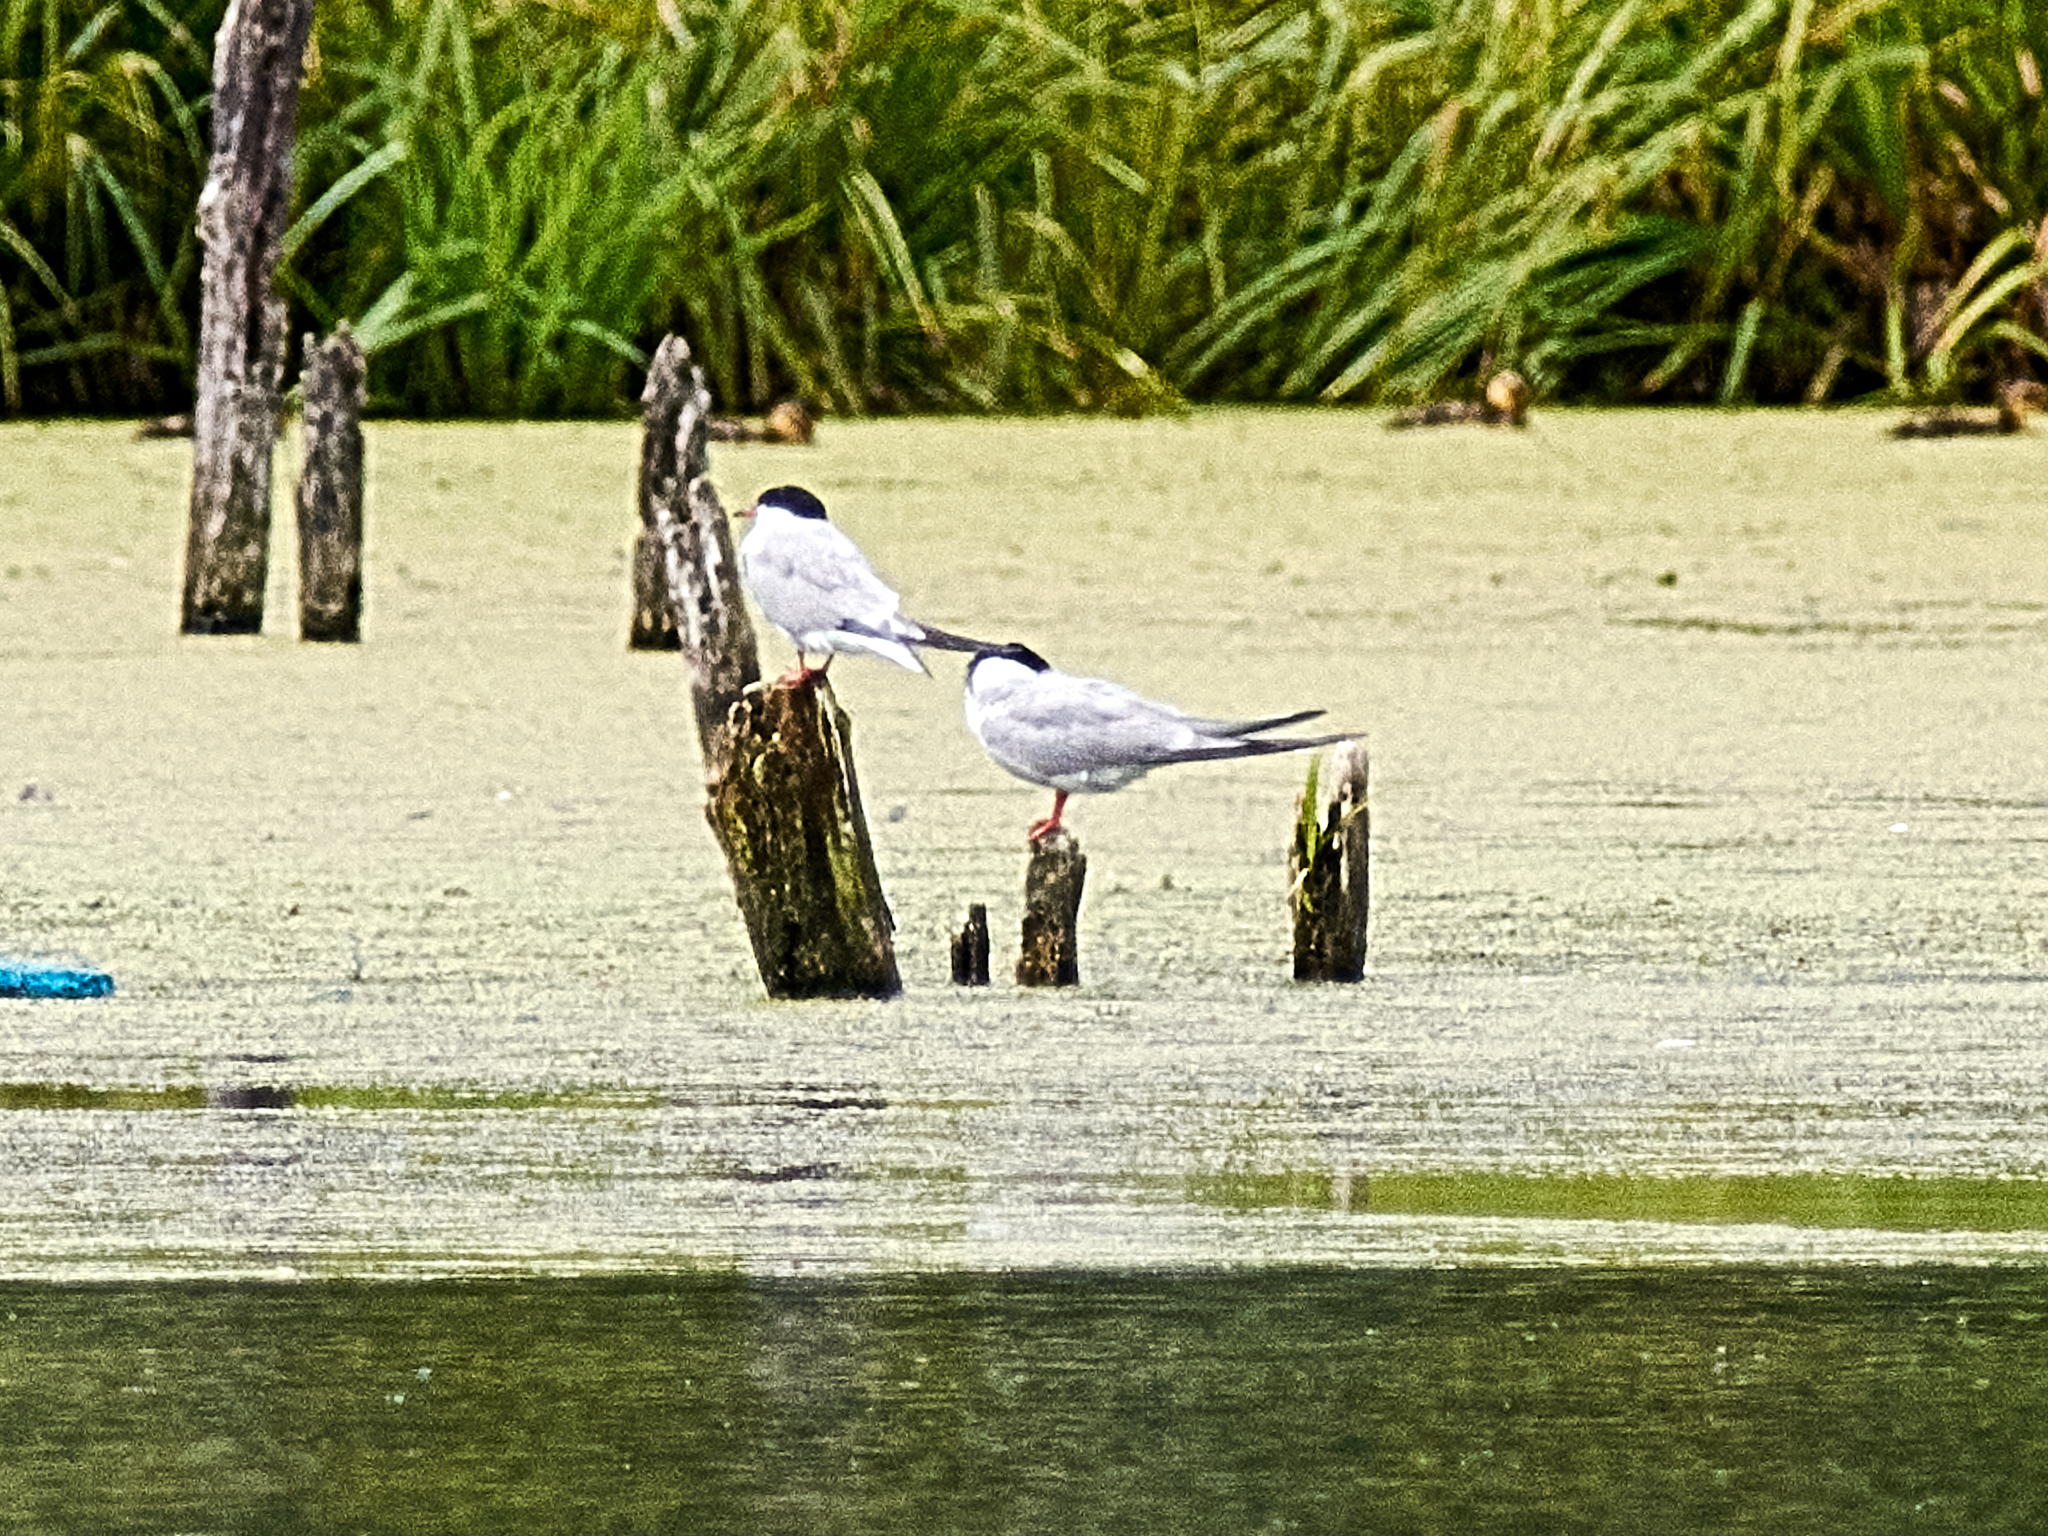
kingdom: Animalia
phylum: Chordata
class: Aves
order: Charadriiformes
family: Laridae
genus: Sterna
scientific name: Sterna hirundo
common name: Common tern
